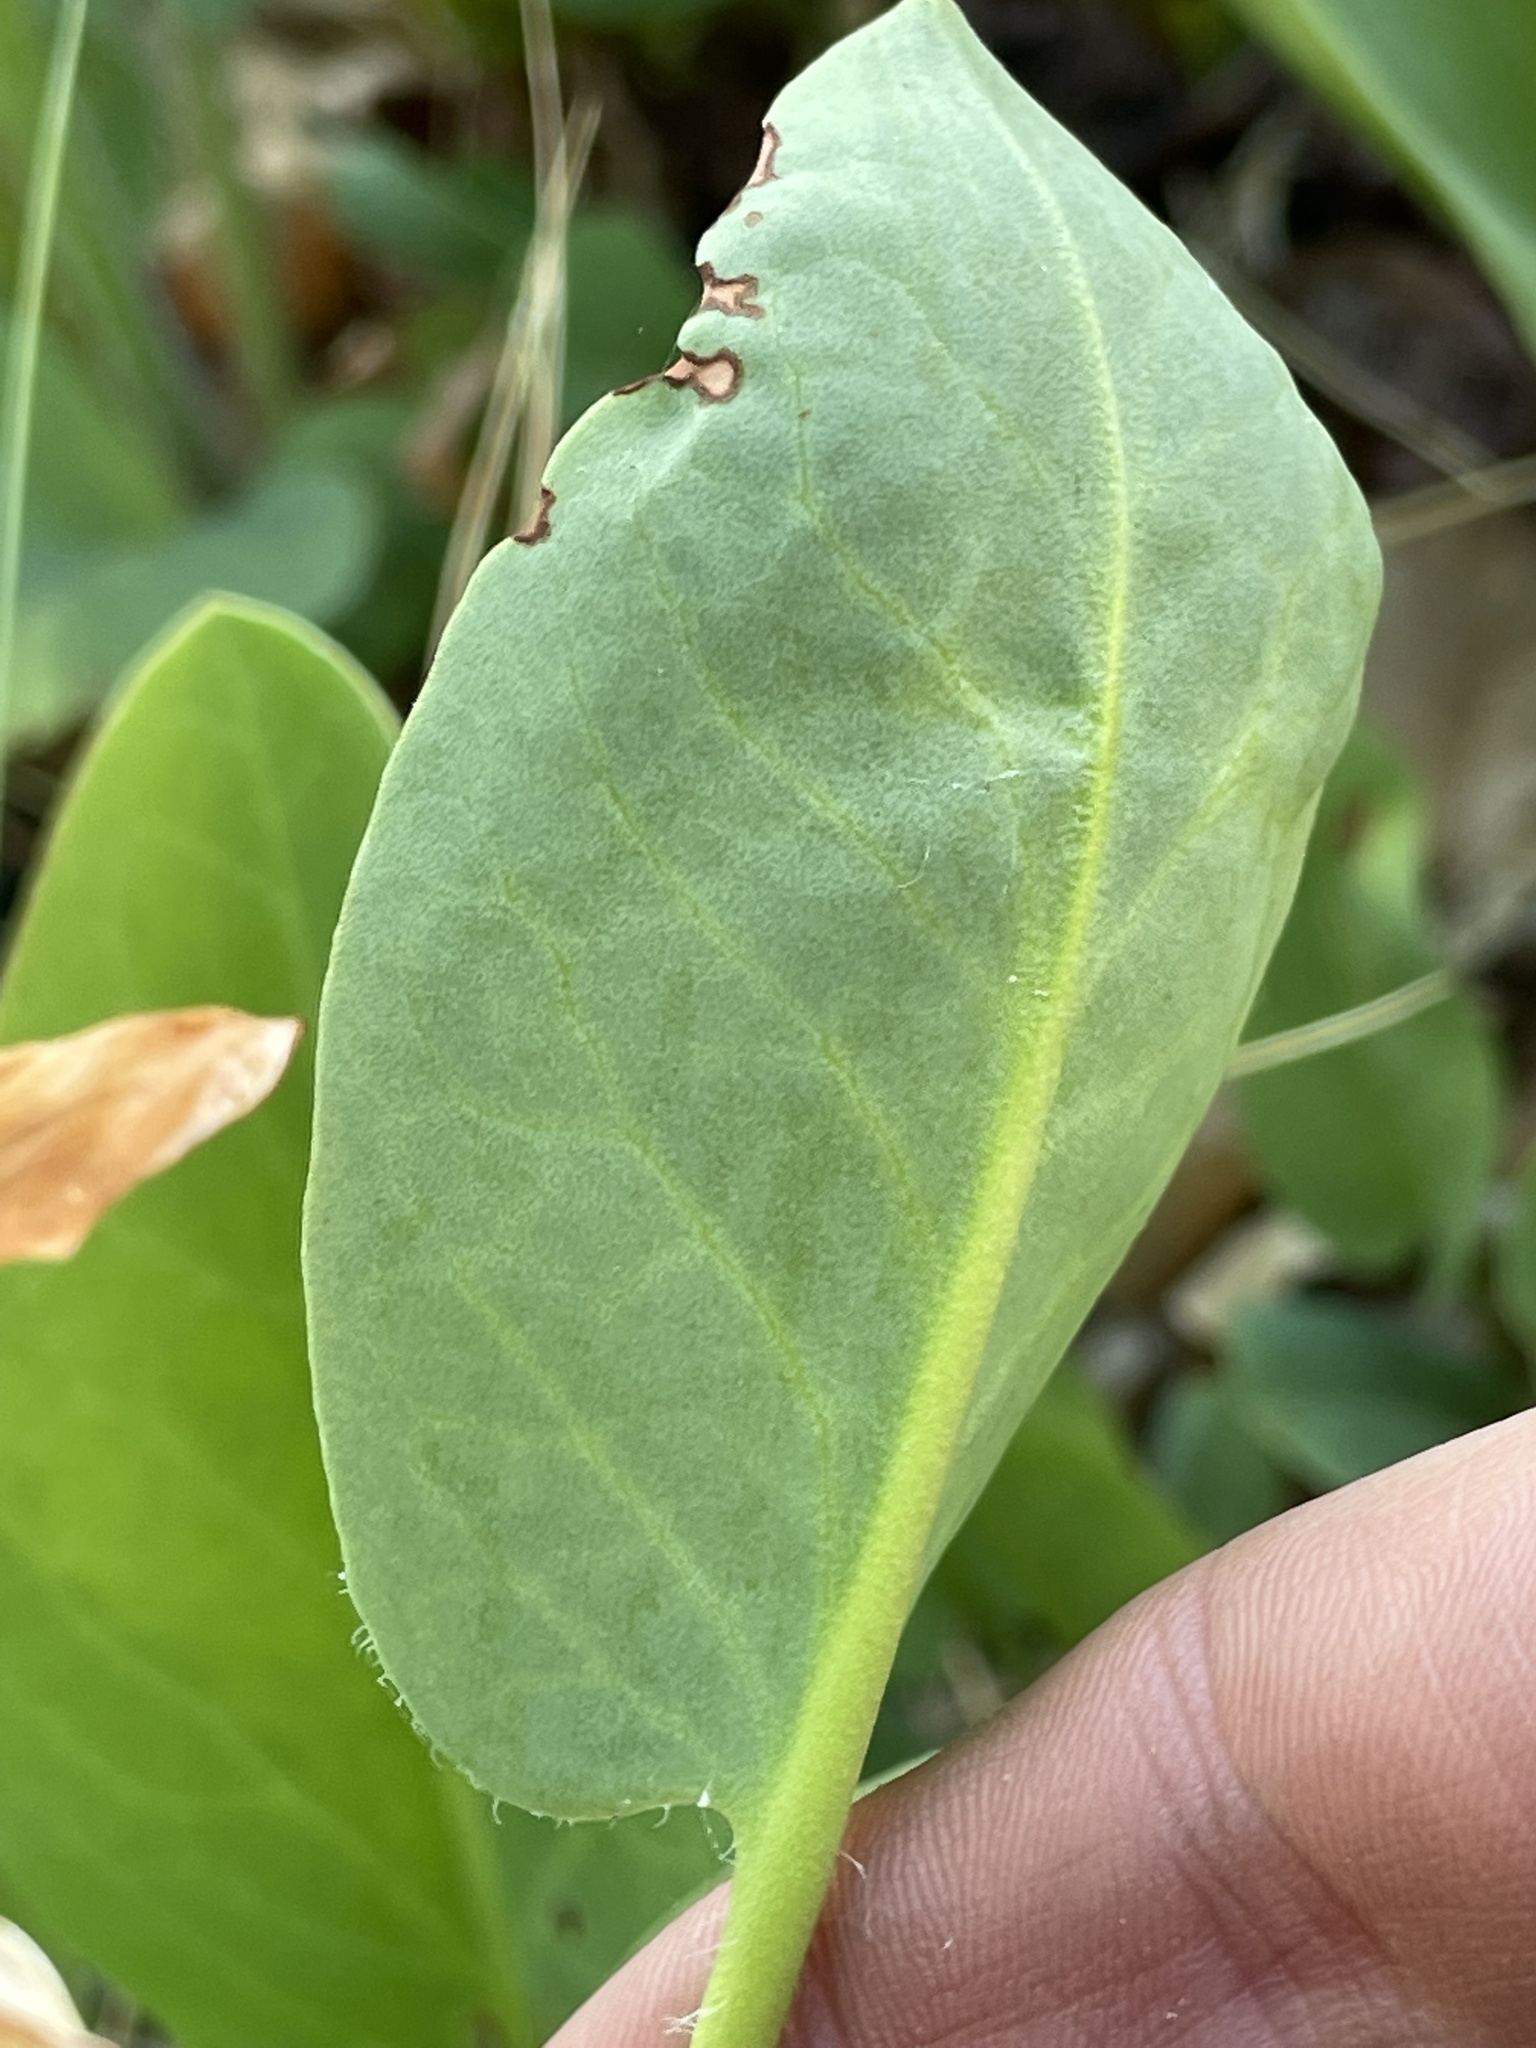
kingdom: Plantae
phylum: Tracheophyta
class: Magnoliopsida
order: Piperales
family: Saururaceae
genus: Anemopsis
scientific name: Anemopsis californica
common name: Apache-beads
